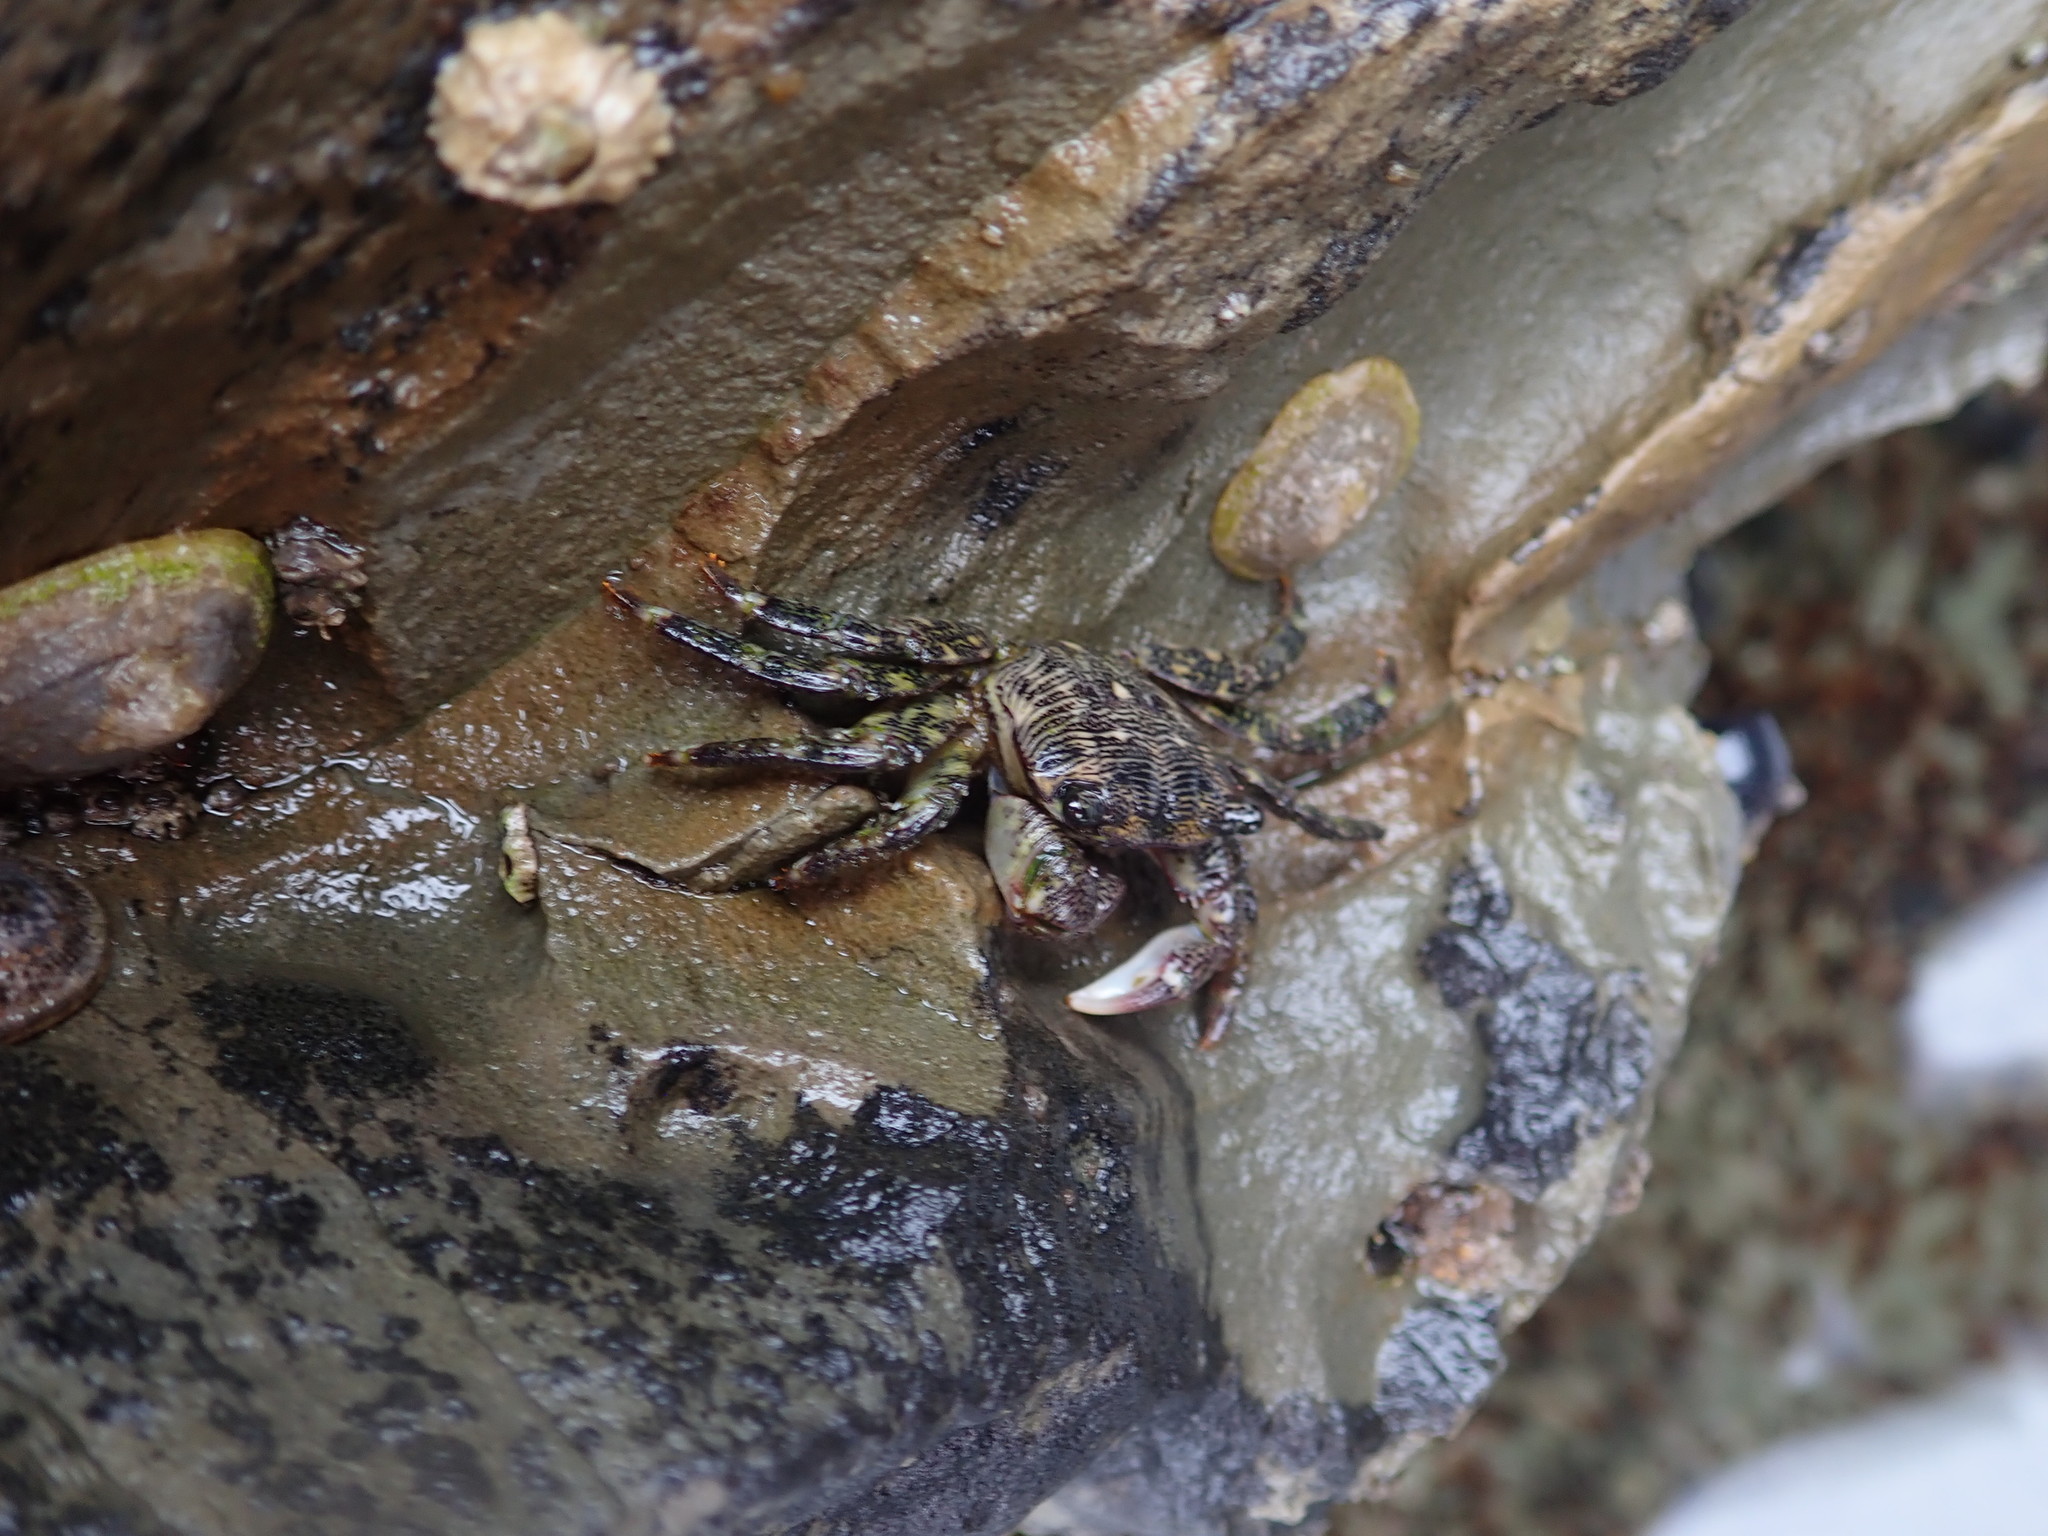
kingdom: Animalia
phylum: Arthropoda
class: Malacostraca
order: Decapoda
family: Grapsidae
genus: Pachygrapsus
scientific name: Pachygrapsus crassipes
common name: Striped shore crab
